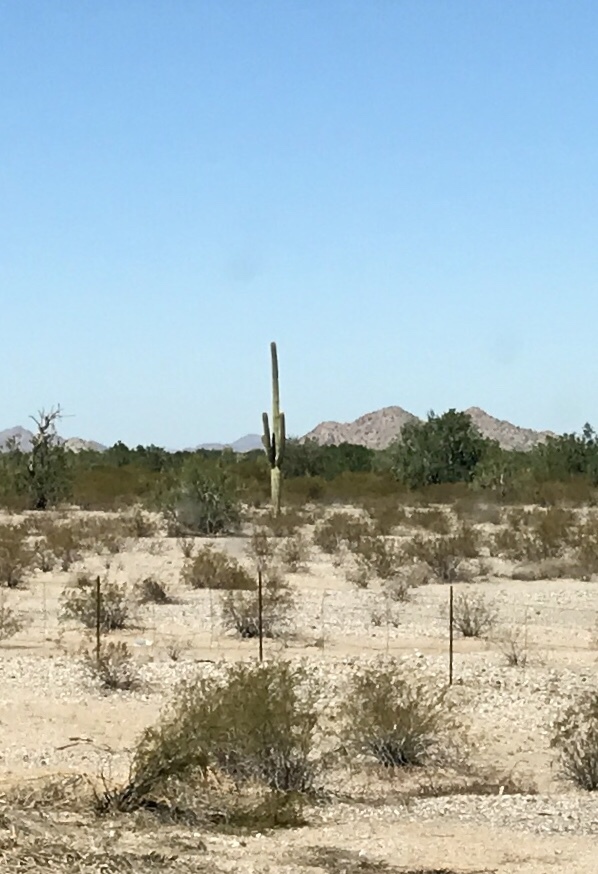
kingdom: Plantae
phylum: Tracheophyta
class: Magnoliopsida
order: Caryophyllales
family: Cactaceae
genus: Carnegiea
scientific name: Carnegiea gigantea
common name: Saguaro
